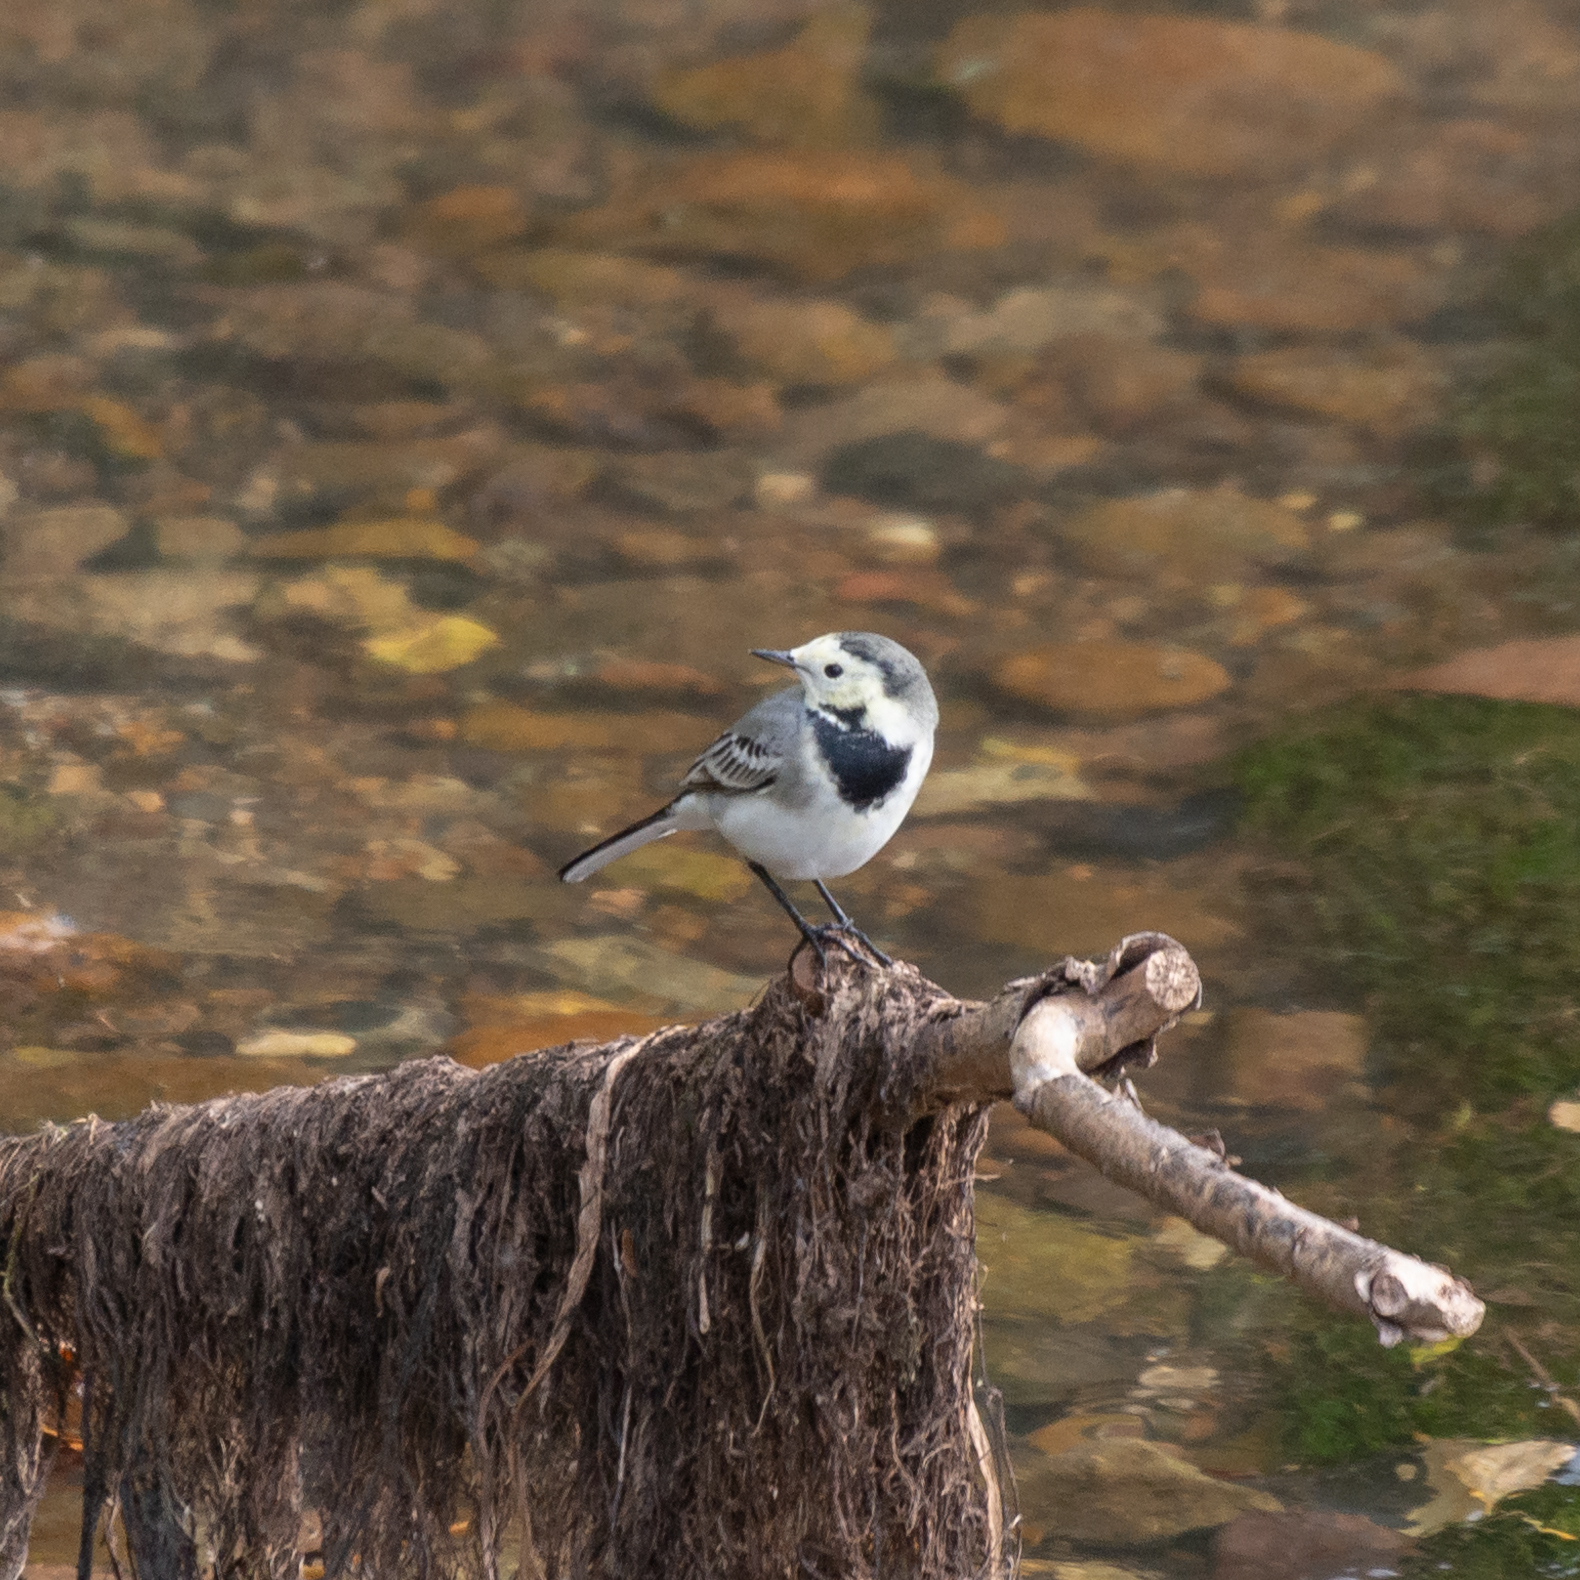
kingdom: Animalia
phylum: Chordata
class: Aves
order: Passeriformes
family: Motacillidae
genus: Motacilla
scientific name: Motacilla alba
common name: White wagtail
